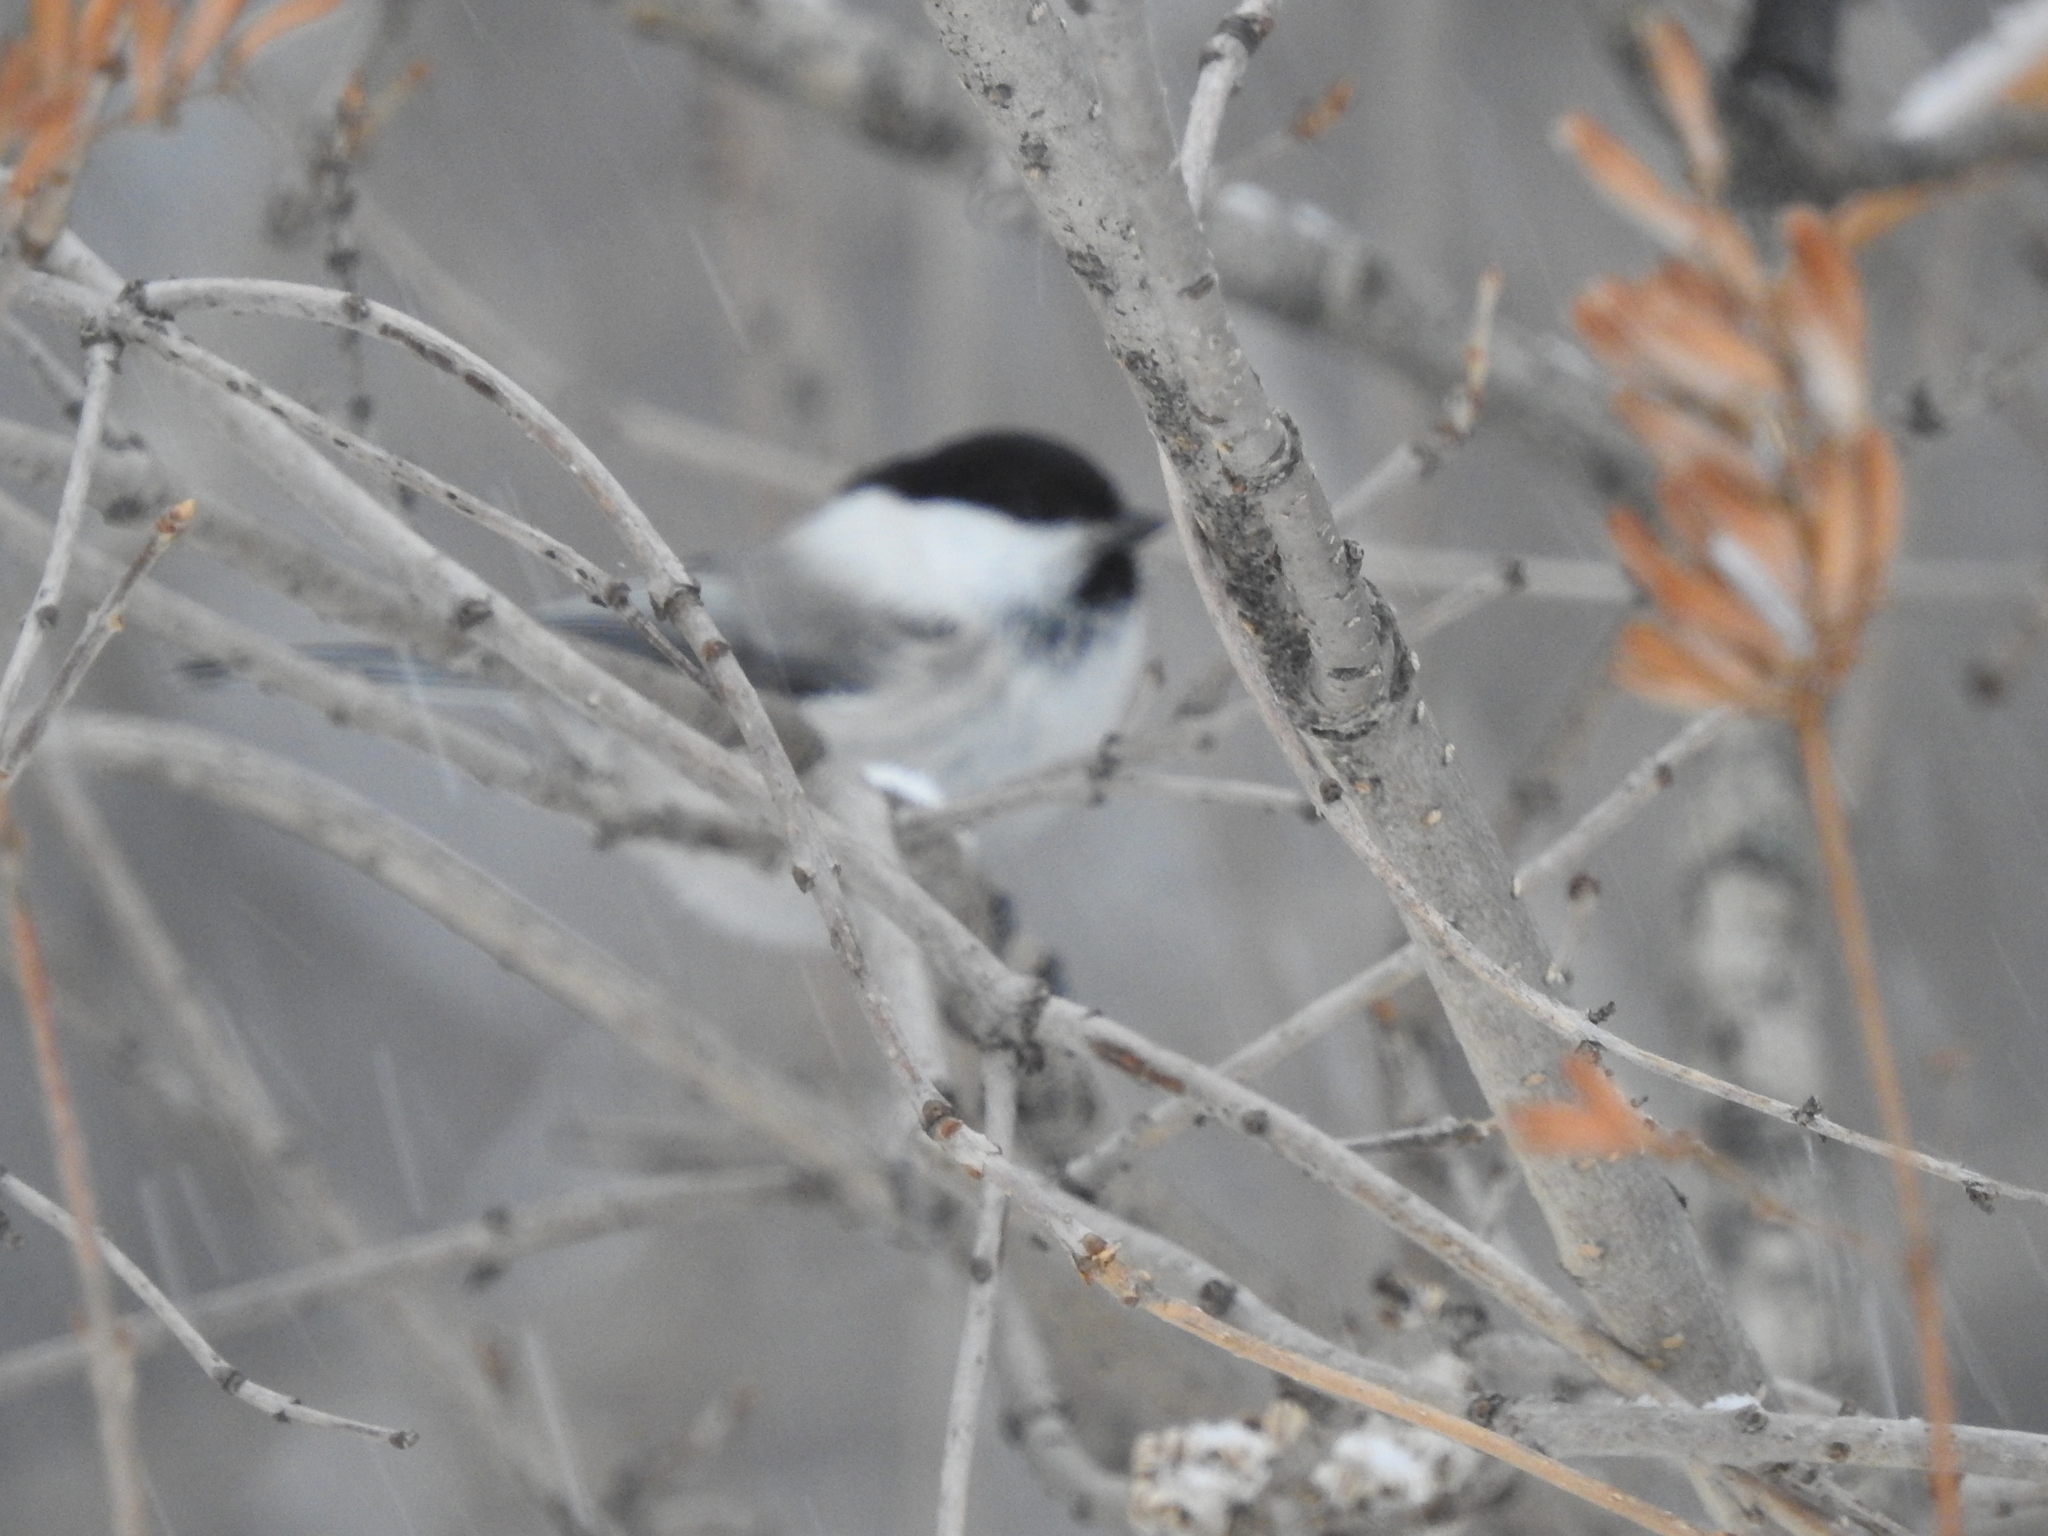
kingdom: Animalia
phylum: Chordata
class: Aves
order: Passeriformes
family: Paridae
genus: Poecile
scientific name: Poecile montanus
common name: Willow tit
